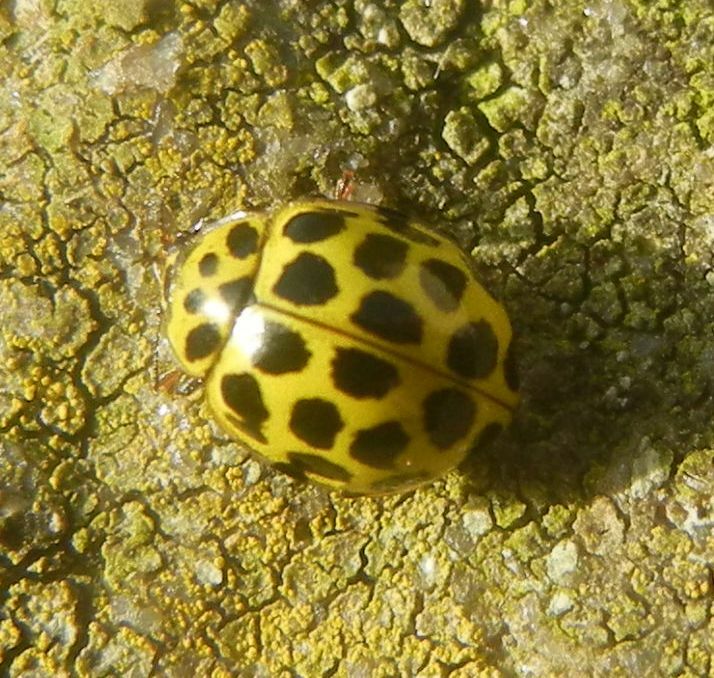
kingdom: Animalia
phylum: Arthropoda
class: Insecta
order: Coleoptera
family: Coccinellidae
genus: Psyllobora
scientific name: Psyllobora vigintiduopunctata
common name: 22-spot ladybird
